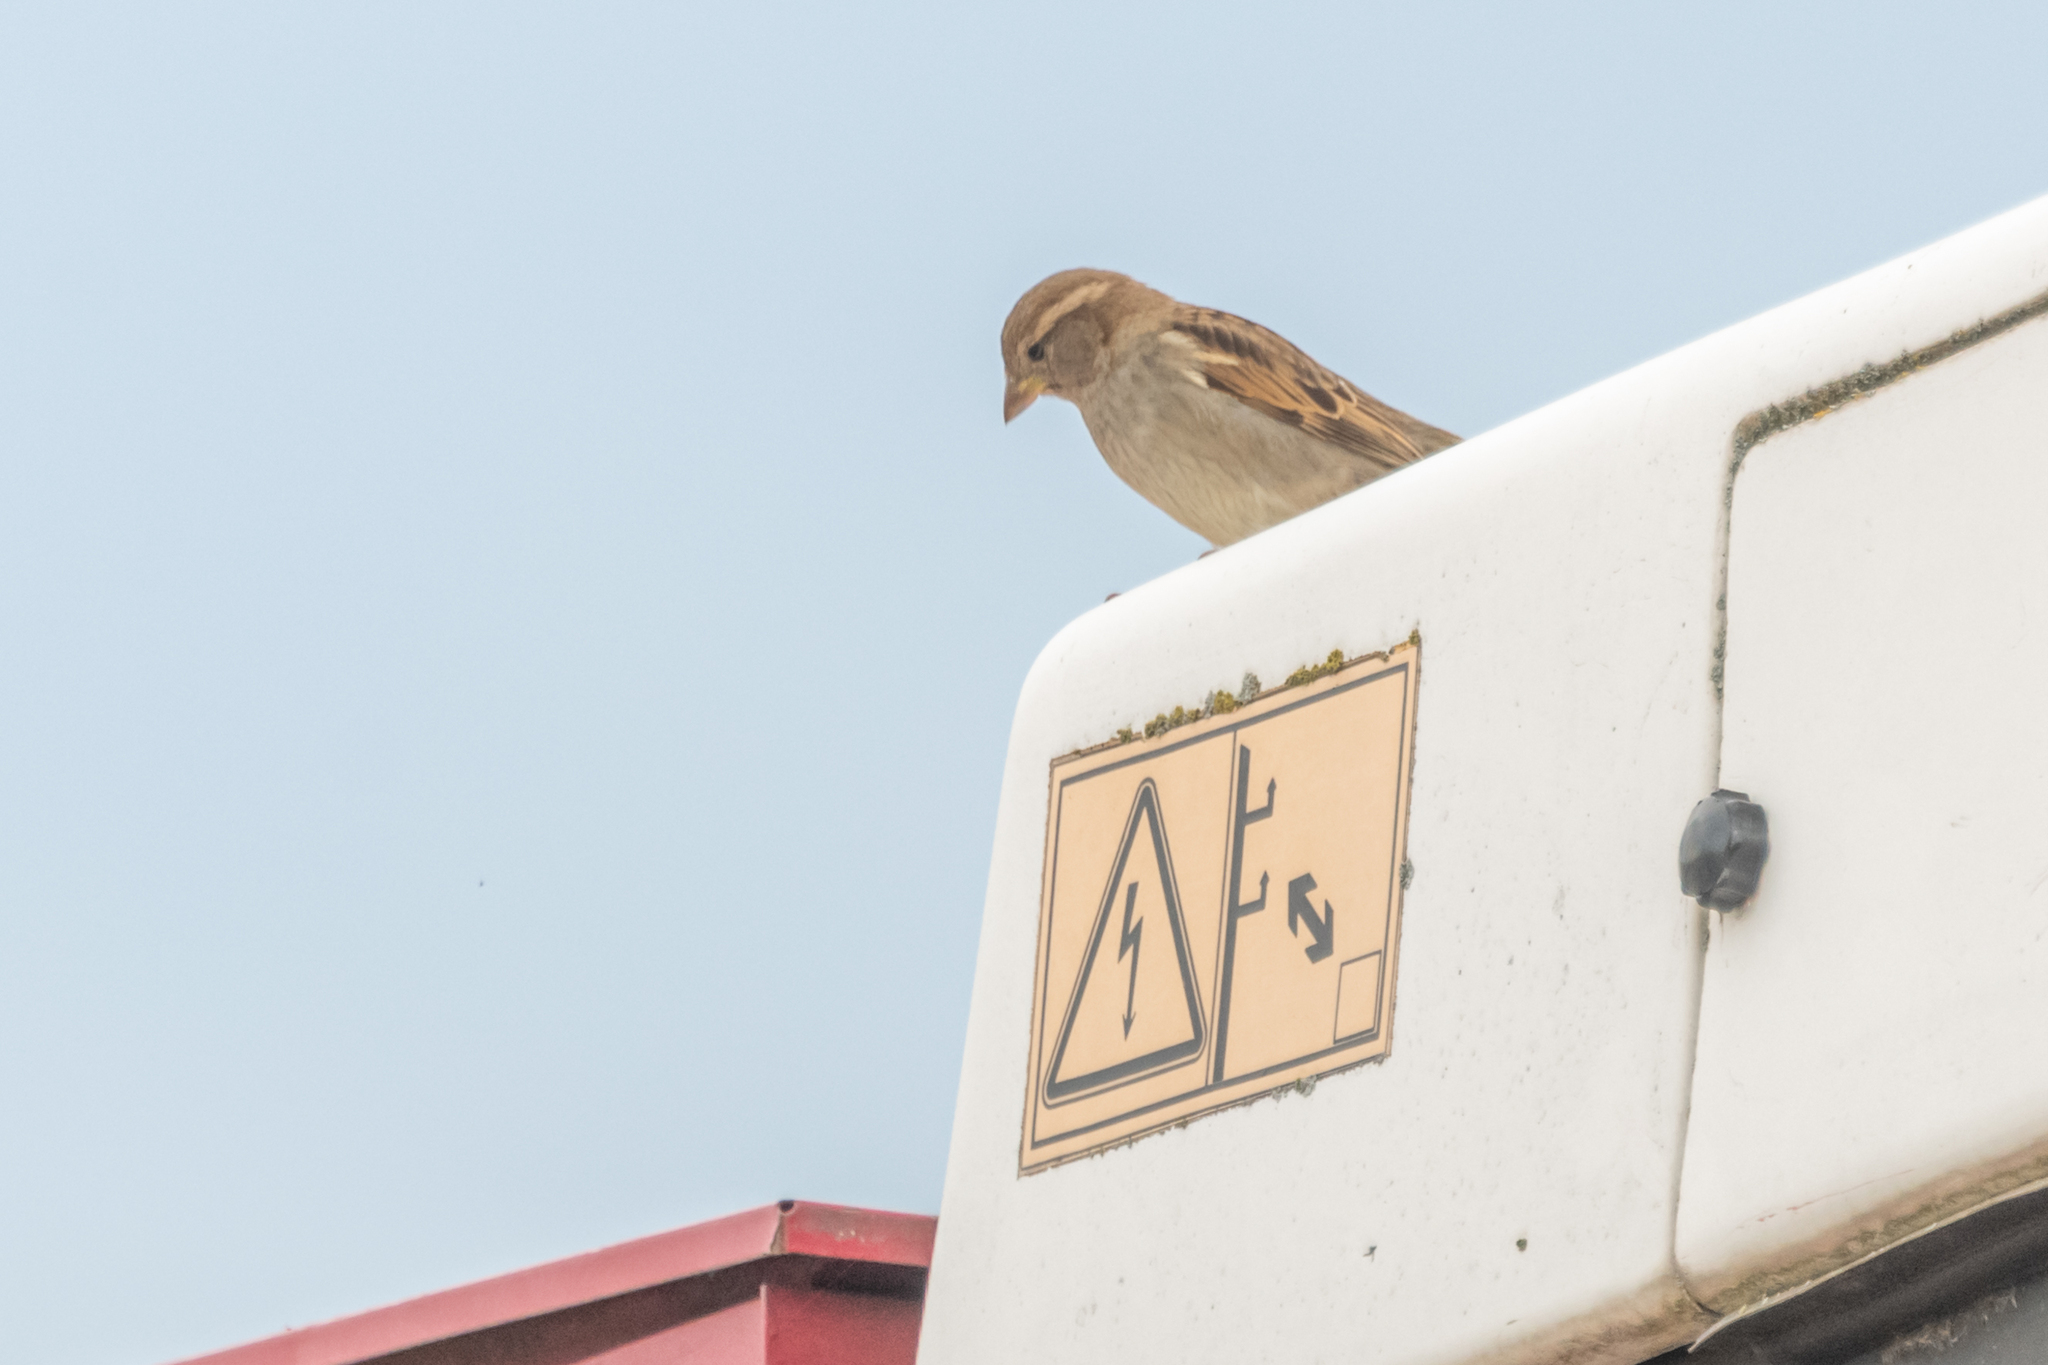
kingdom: Animalia
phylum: Chordata
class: Aves
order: Passeriformes
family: Passeridae
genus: Passer
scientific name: Passer domesticus
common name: House sparrow
